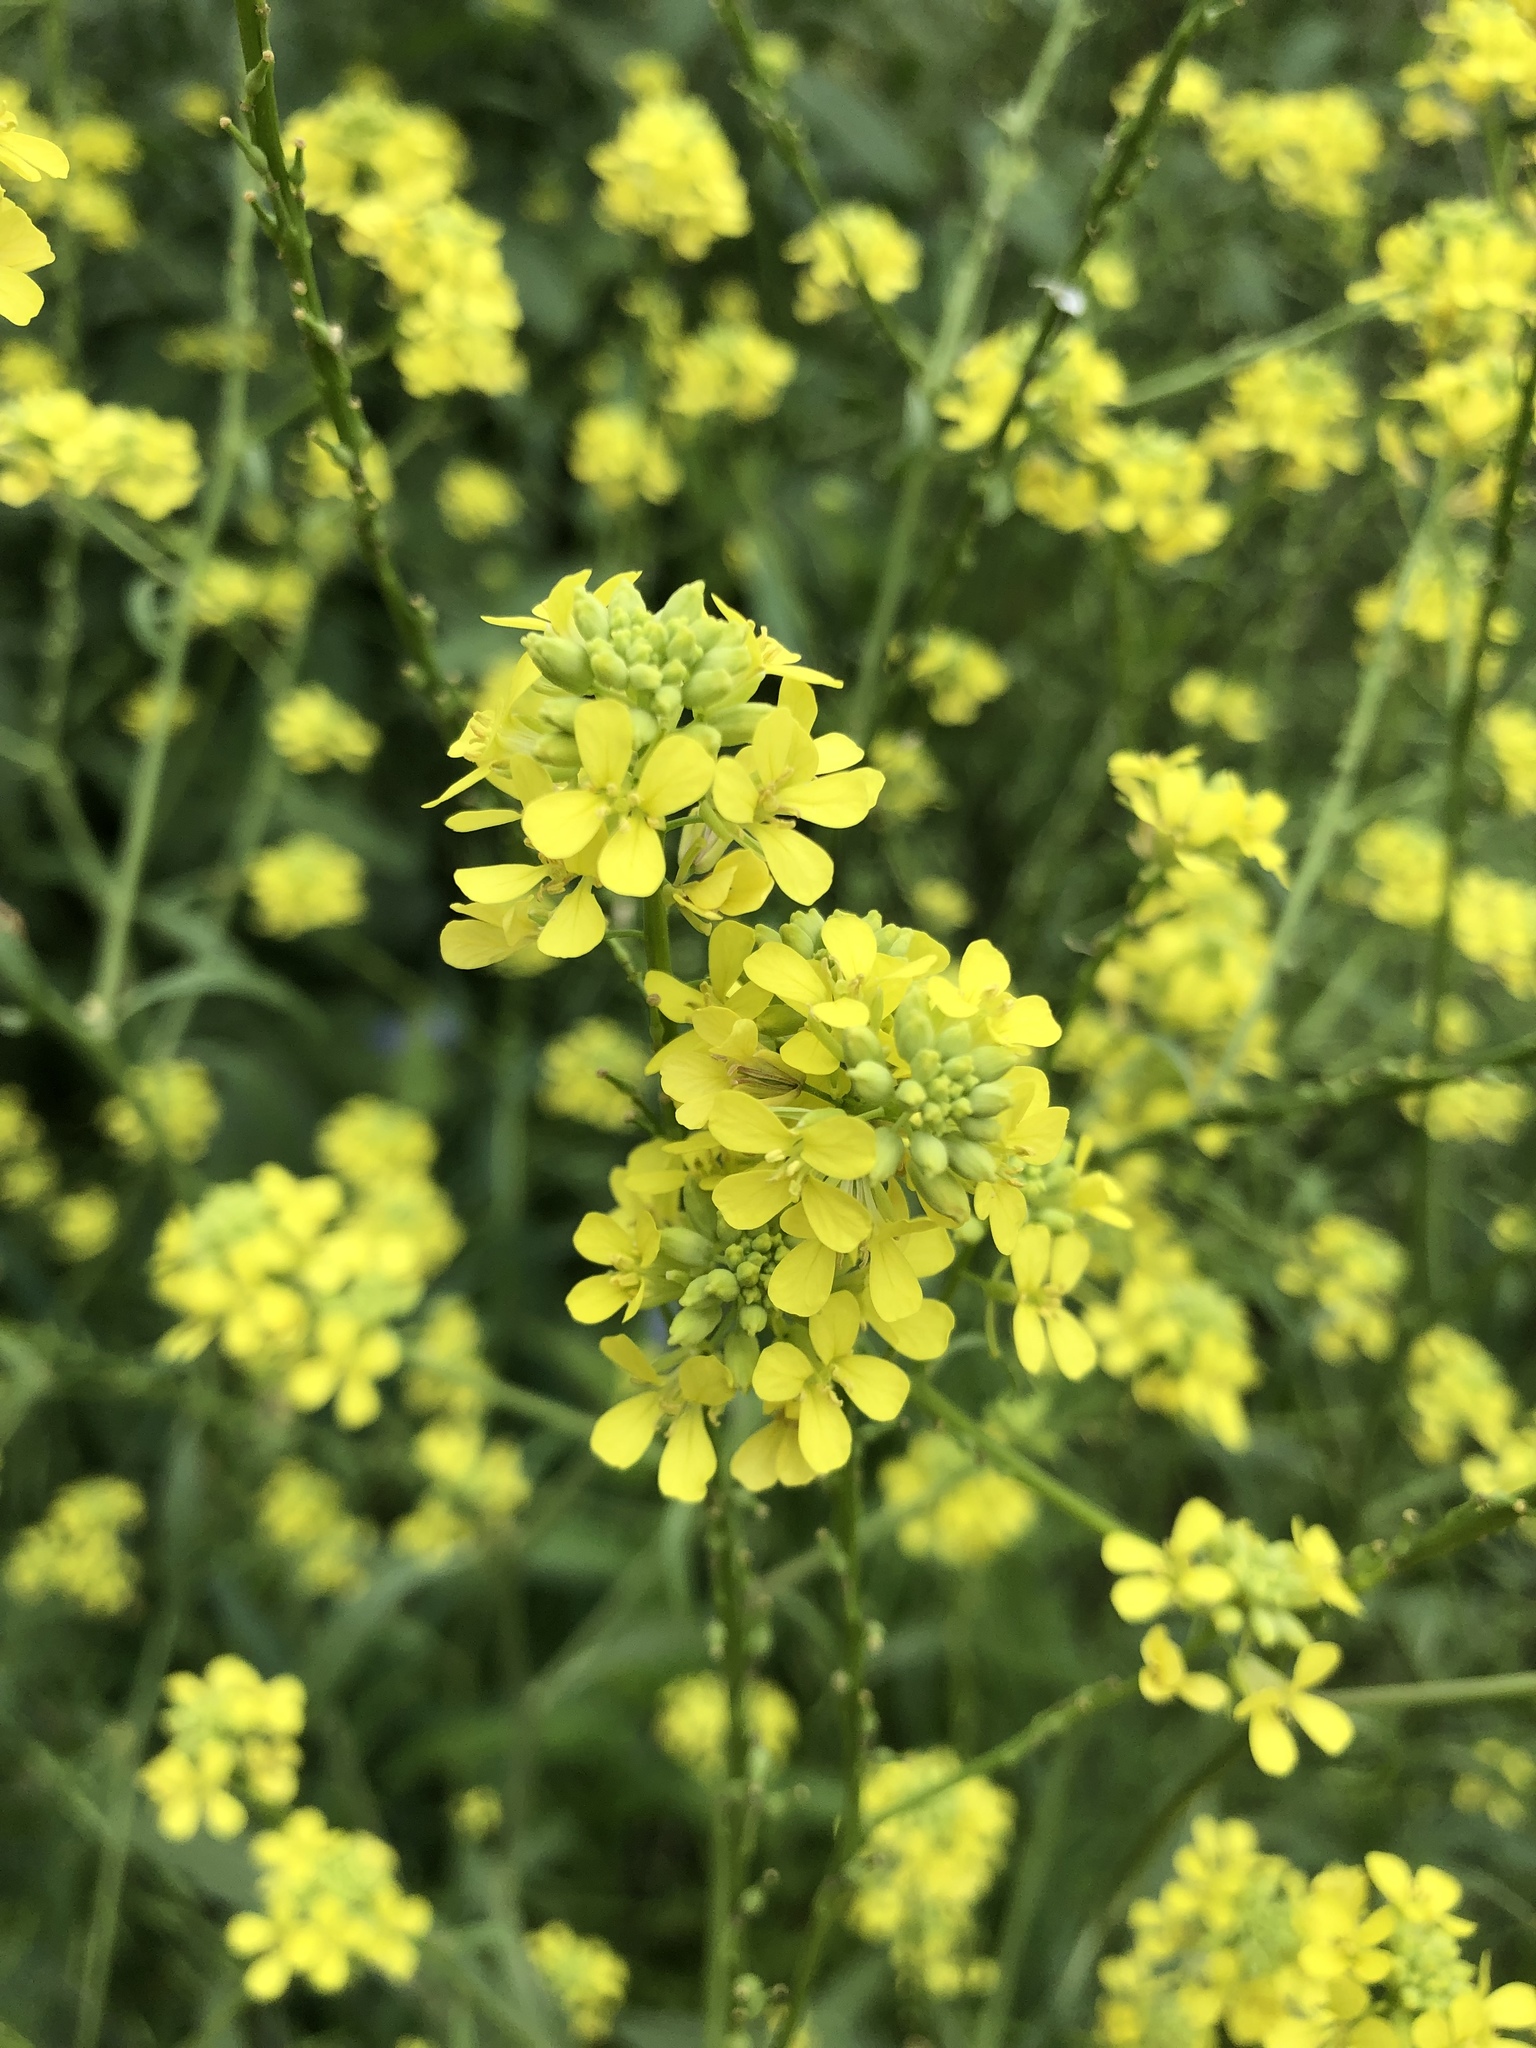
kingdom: Plantae
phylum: Tracheophyta
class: Magnoliopsida
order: Brassicales
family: Brassicaceae
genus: Rapistrum
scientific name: Rapistrum rugosum
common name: Annual bastardcabbage
